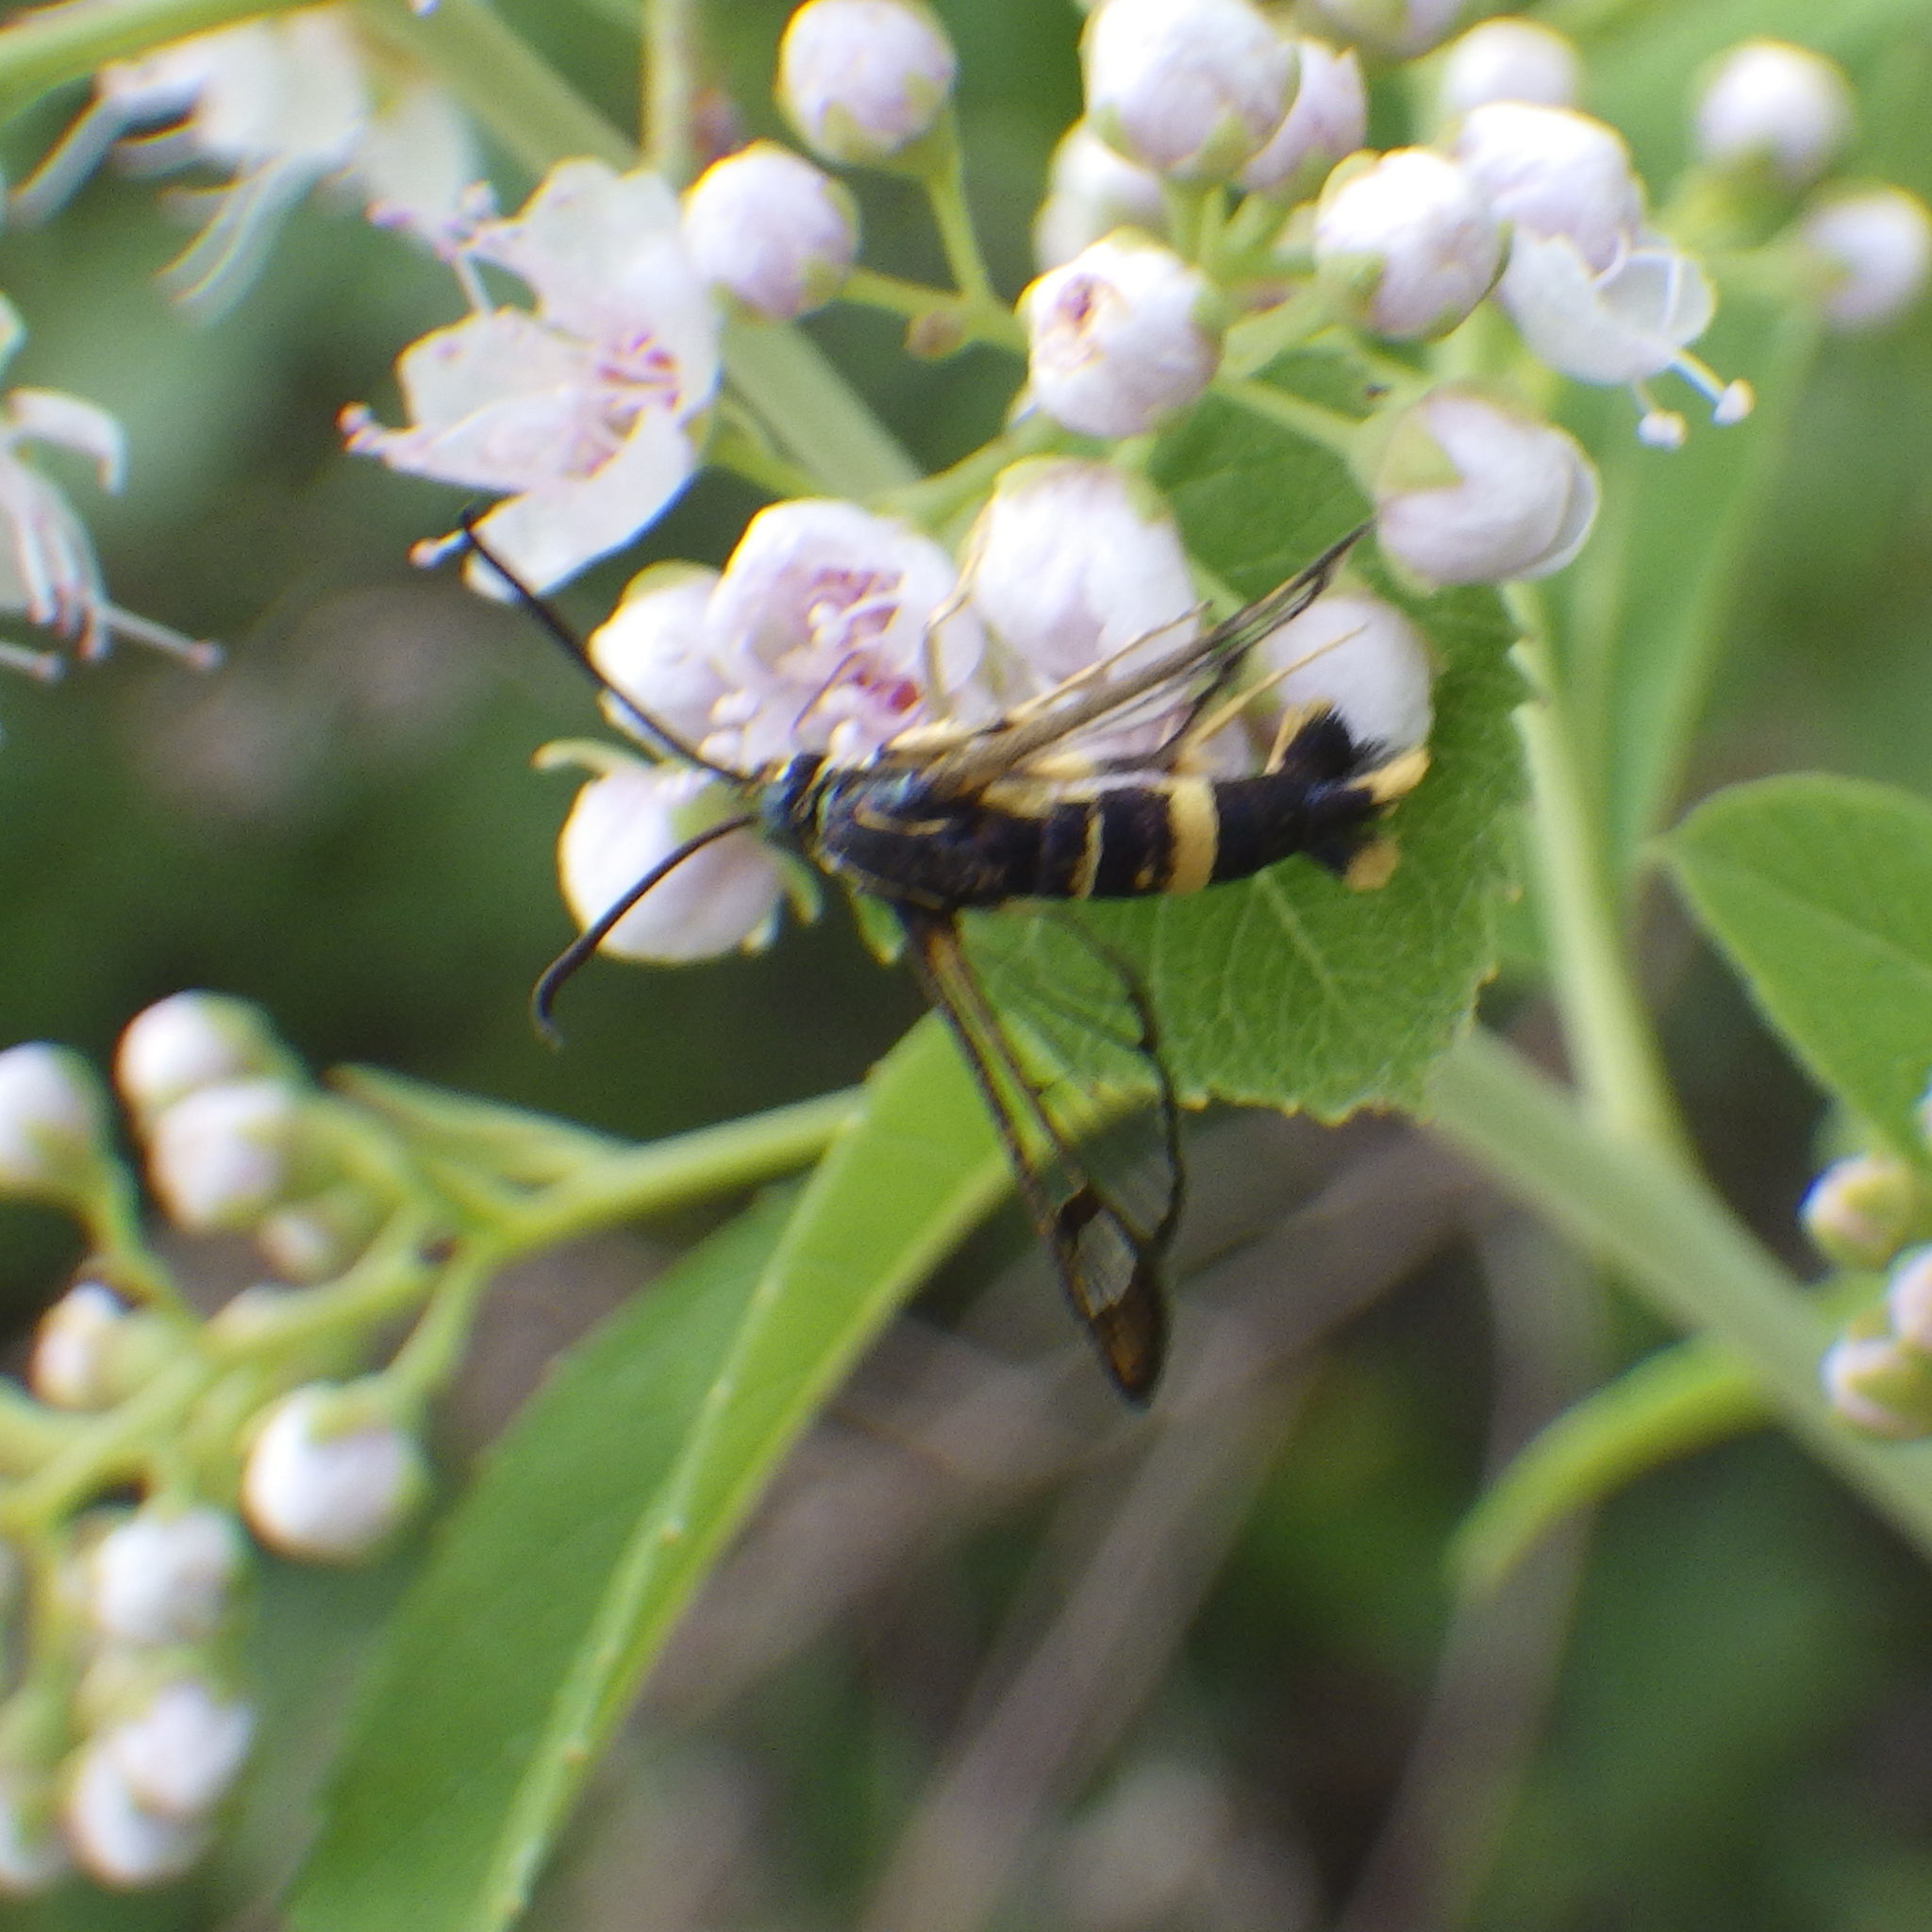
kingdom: Animalia
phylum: Arthropoda
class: Insecta
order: Lepidoptera
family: Sesiidae
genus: Synanthedon
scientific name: Synanthedon scitula
